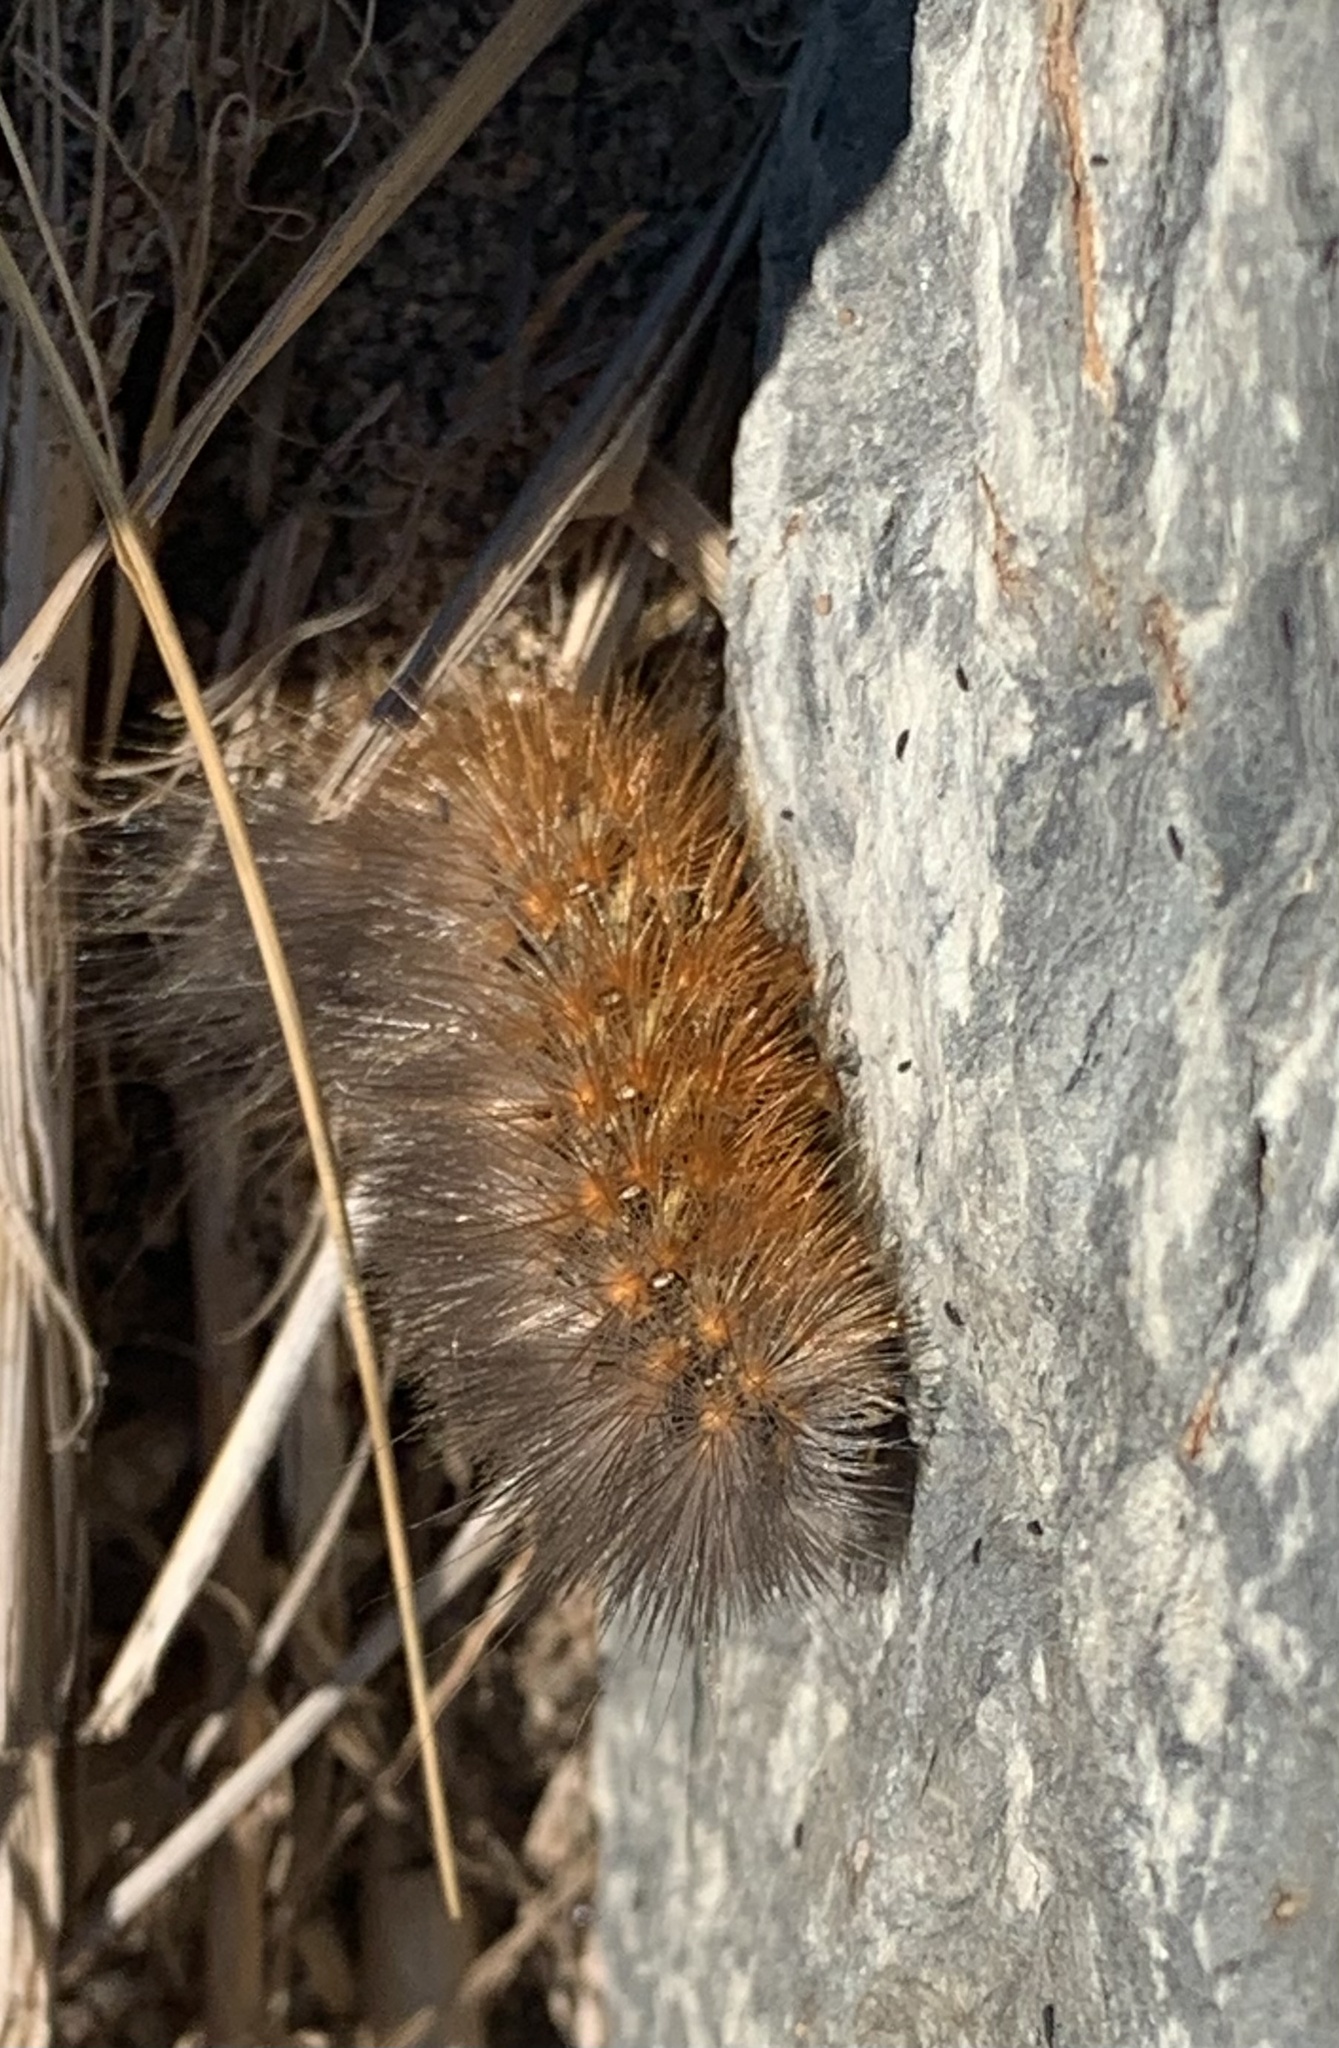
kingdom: Animalia
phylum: Arthropoda
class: Insecta
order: Lepidoptera
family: Erebidae
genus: Estigmene
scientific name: Estigmene acrea
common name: Salt marsh moth
